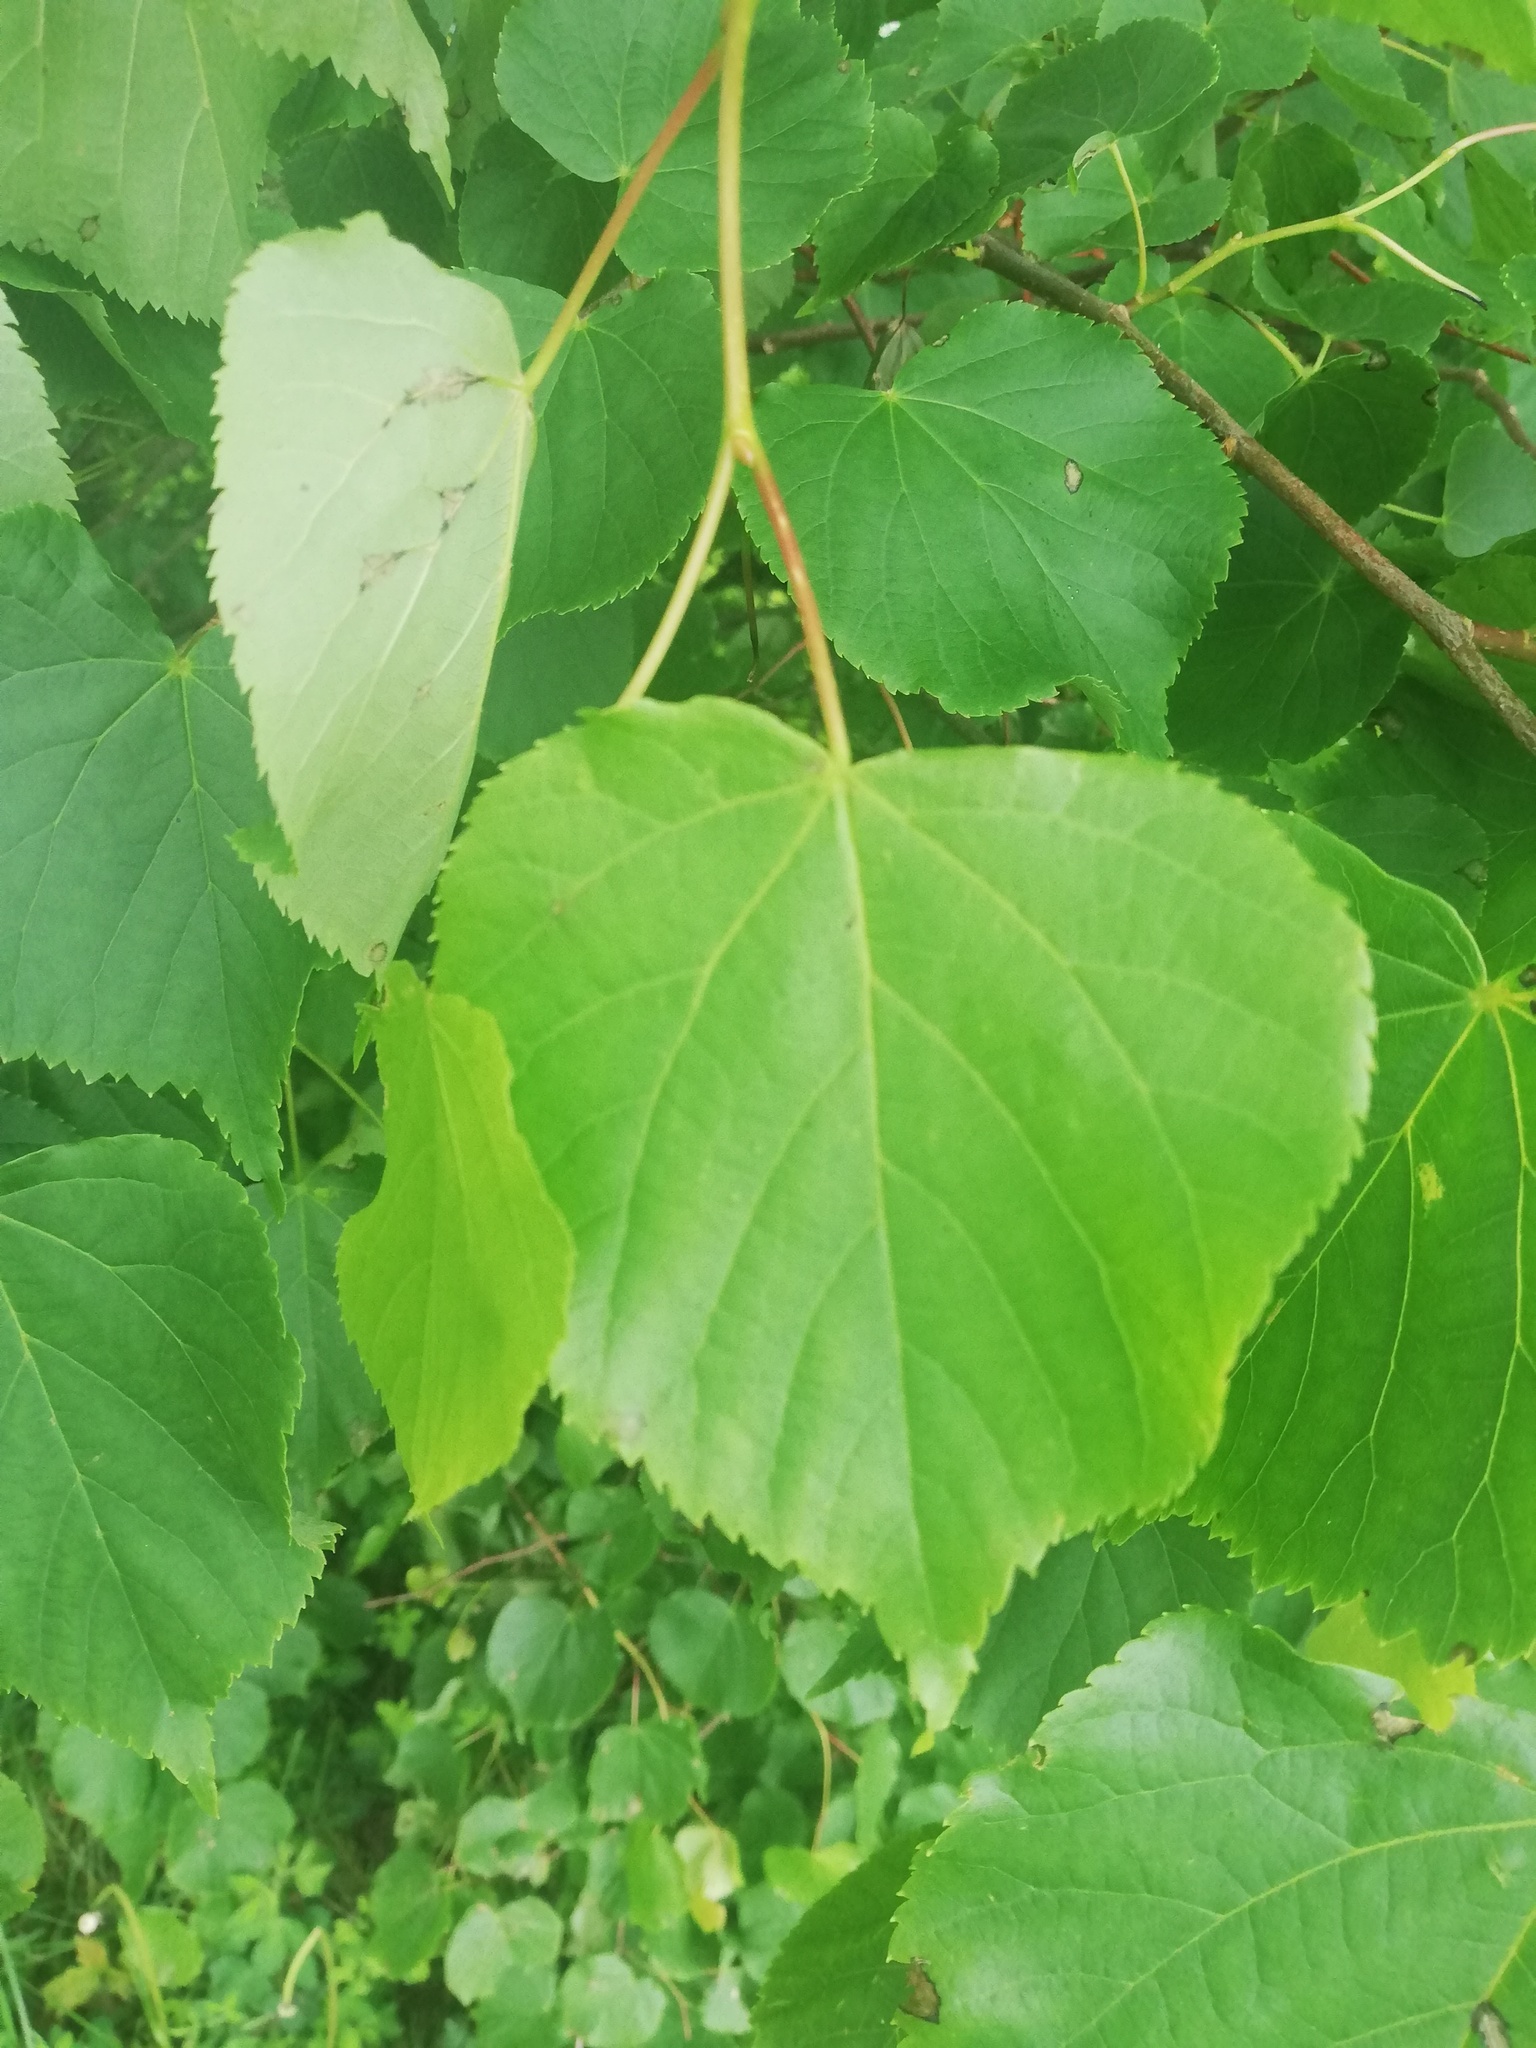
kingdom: Plantae
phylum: Tracheophyta
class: Magnoliopsida
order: Malvales
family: Malvaceae
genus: Tilia
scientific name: Tilia cordata
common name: Small-leaved lime
